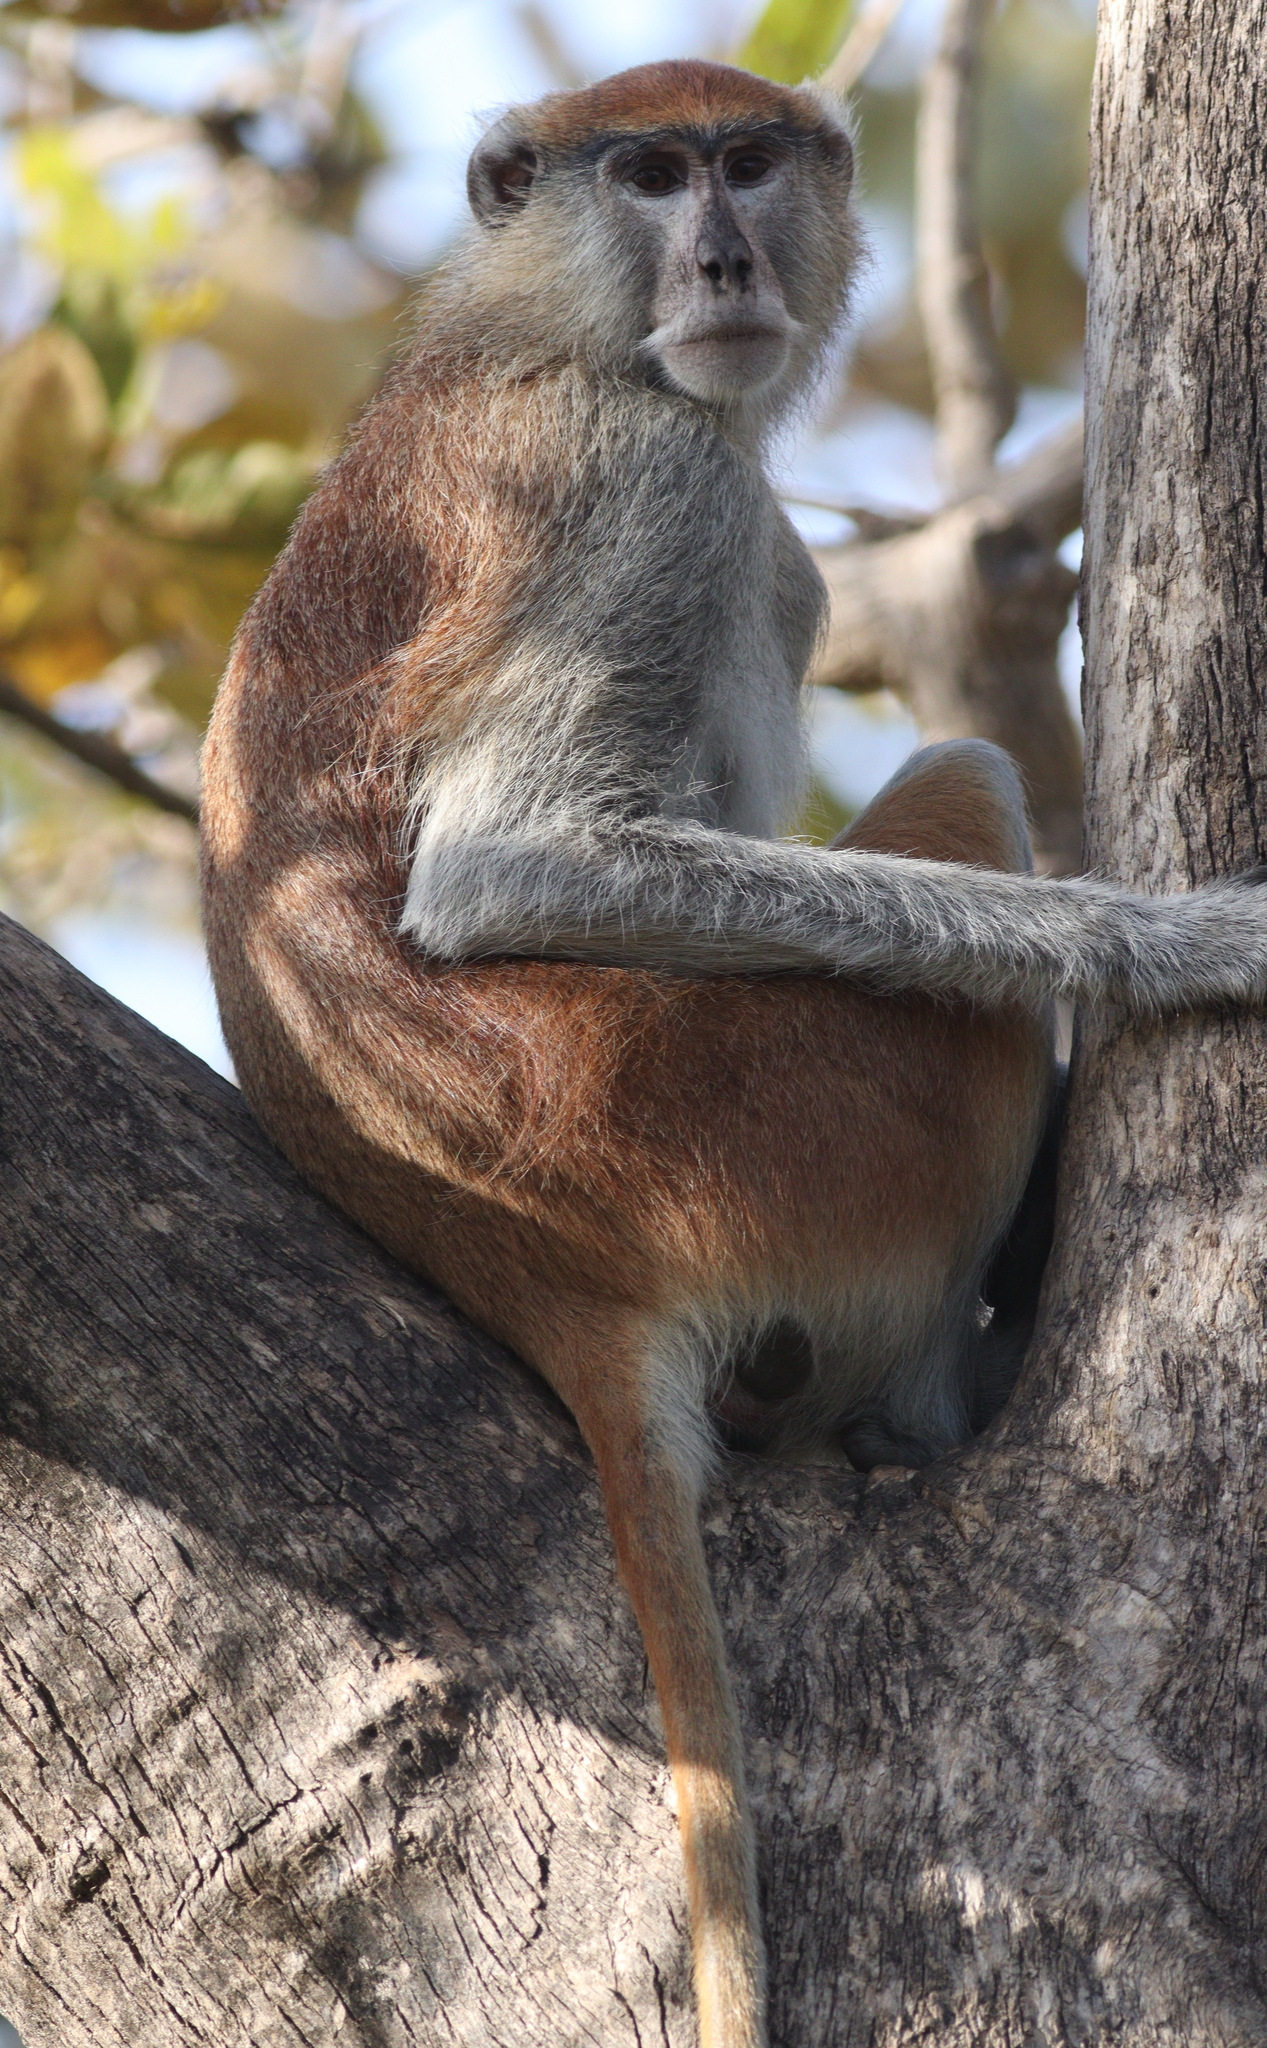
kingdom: Animalia
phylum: Chordata
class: Mammalia
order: Primates
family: Cercopithecidae
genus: Erythrocebus
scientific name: Erythrocebus patas
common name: Patas monkey
